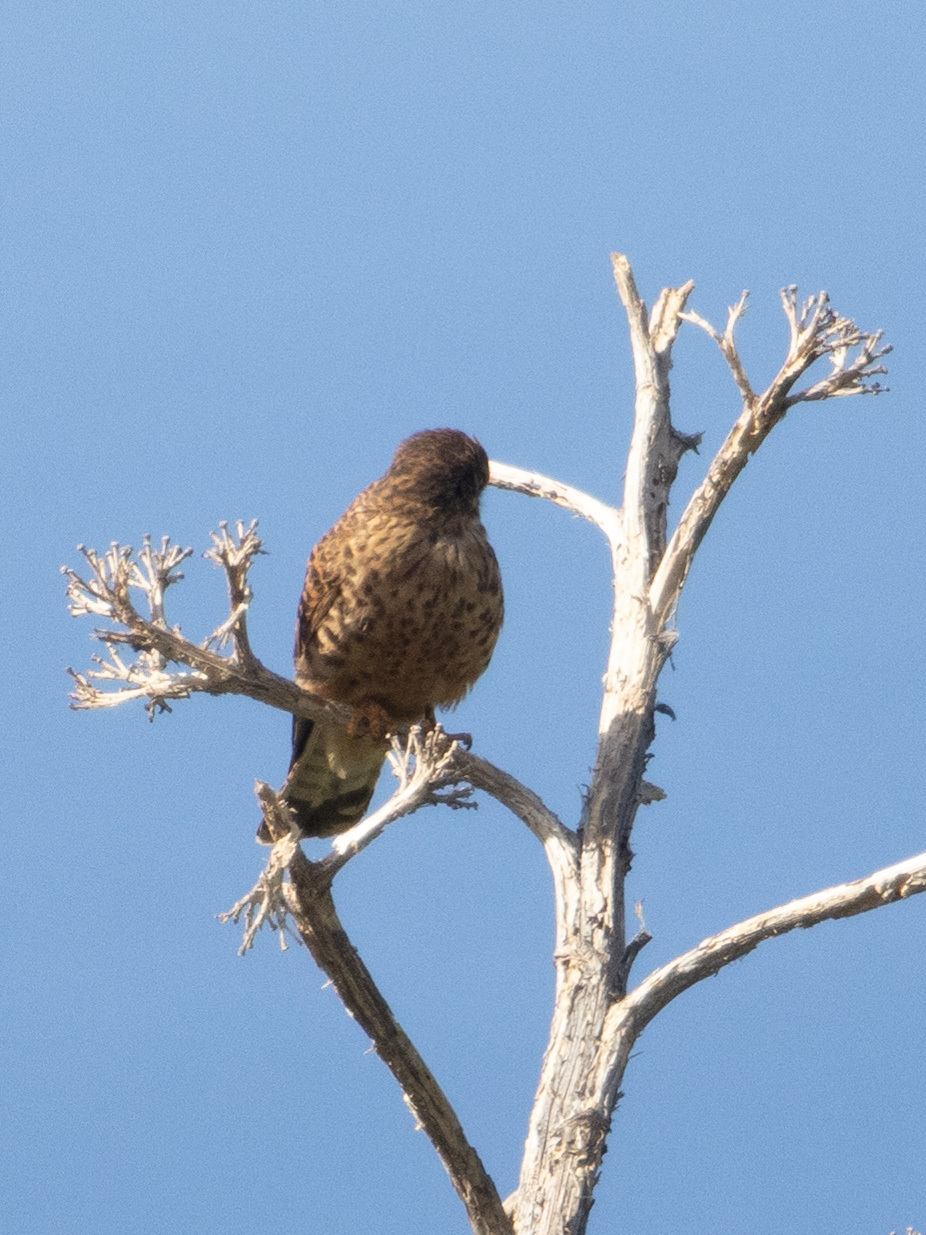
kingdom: Animalia
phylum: Chordata
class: Aves
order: Falconiformes
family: Falconidae
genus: Falco
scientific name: Falco tinnunculus
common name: Common kestrel
